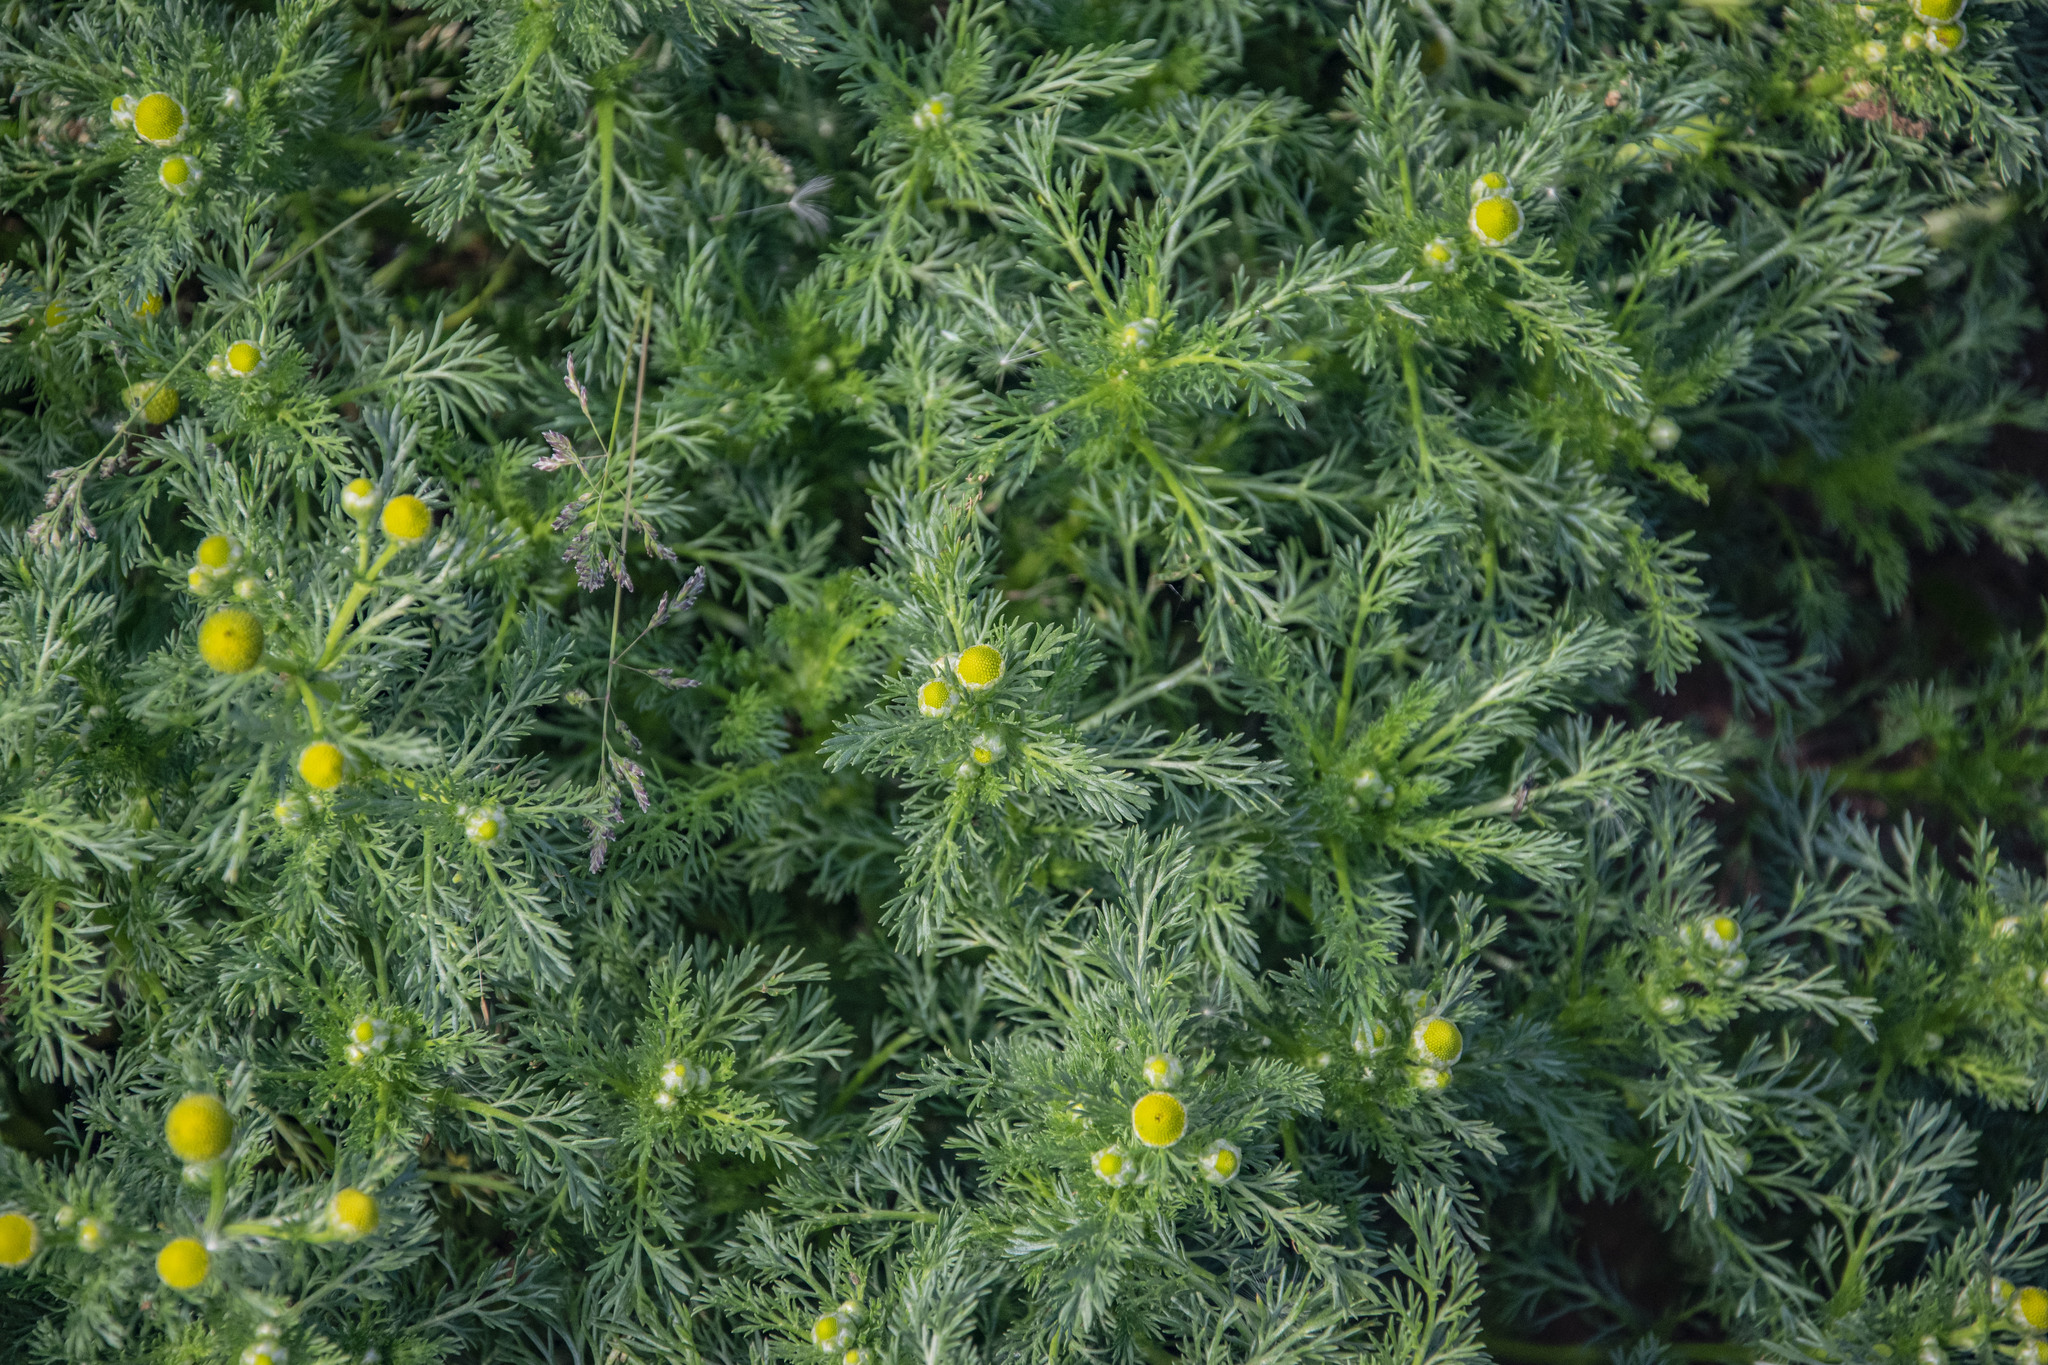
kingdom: Plantae
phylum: Tracheophyta
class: Magnoliopsida
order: Asterales
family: Asteraceae
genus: Matricaria
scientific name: Matricaria discoidea
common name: Disc mayweed
